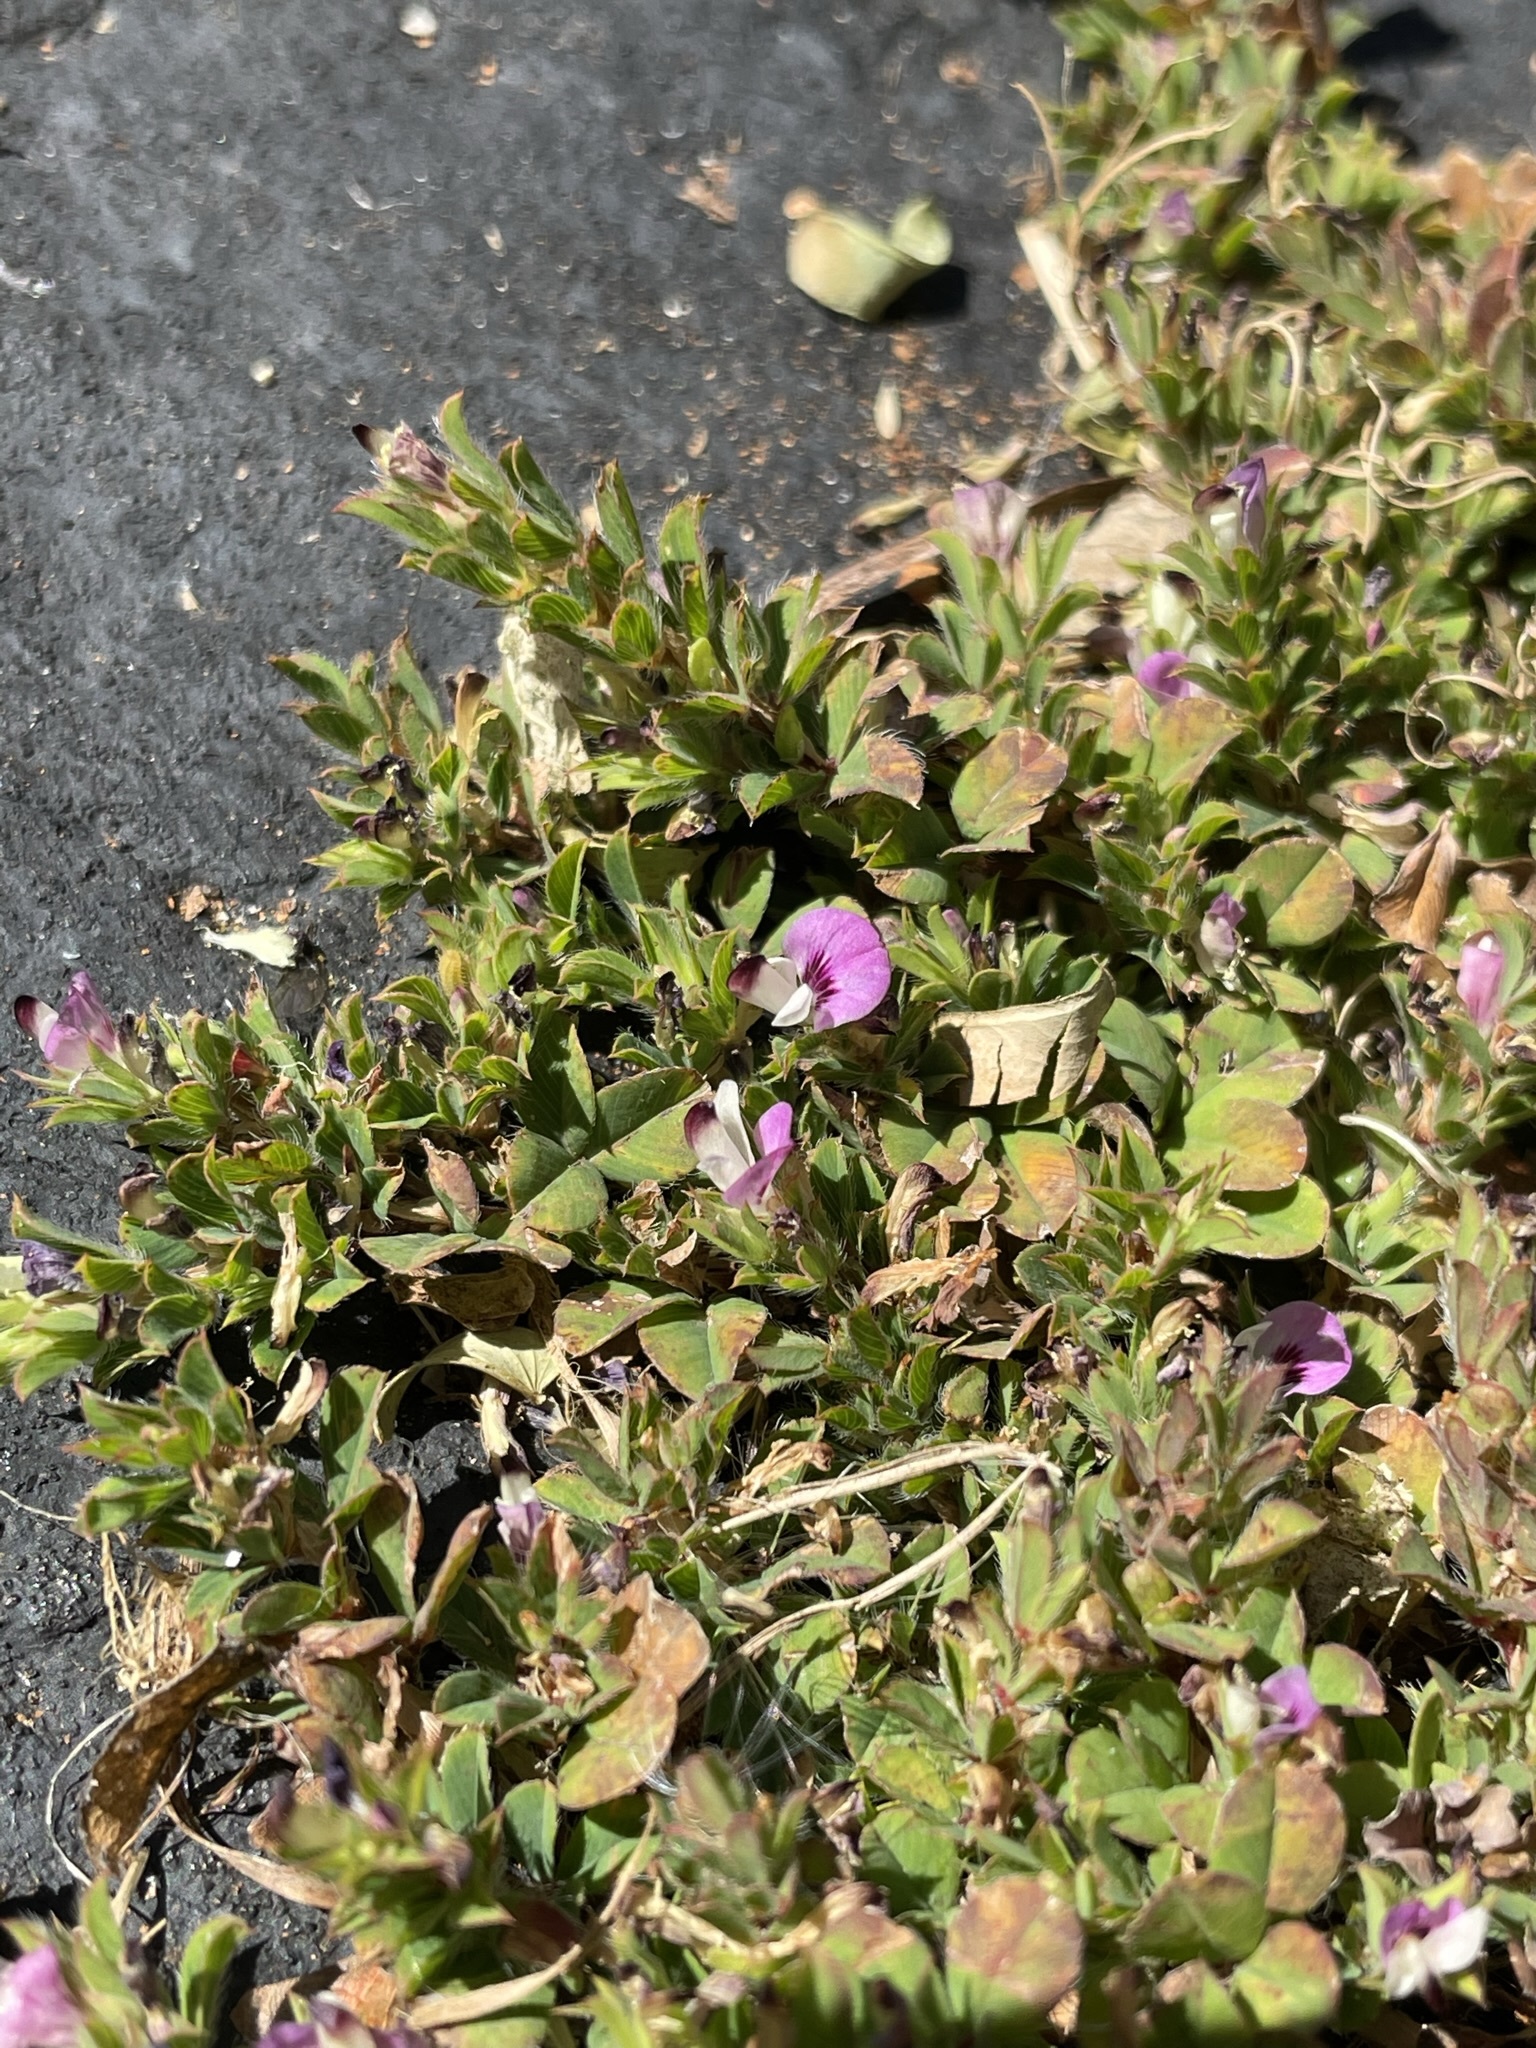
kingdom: Plantae
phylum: Tracheophyta
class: Magnoliopsida
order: Fabales
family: Fabaceae
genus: Kummerowia
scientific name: Kummerowia stipulacea
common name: Korean clover
